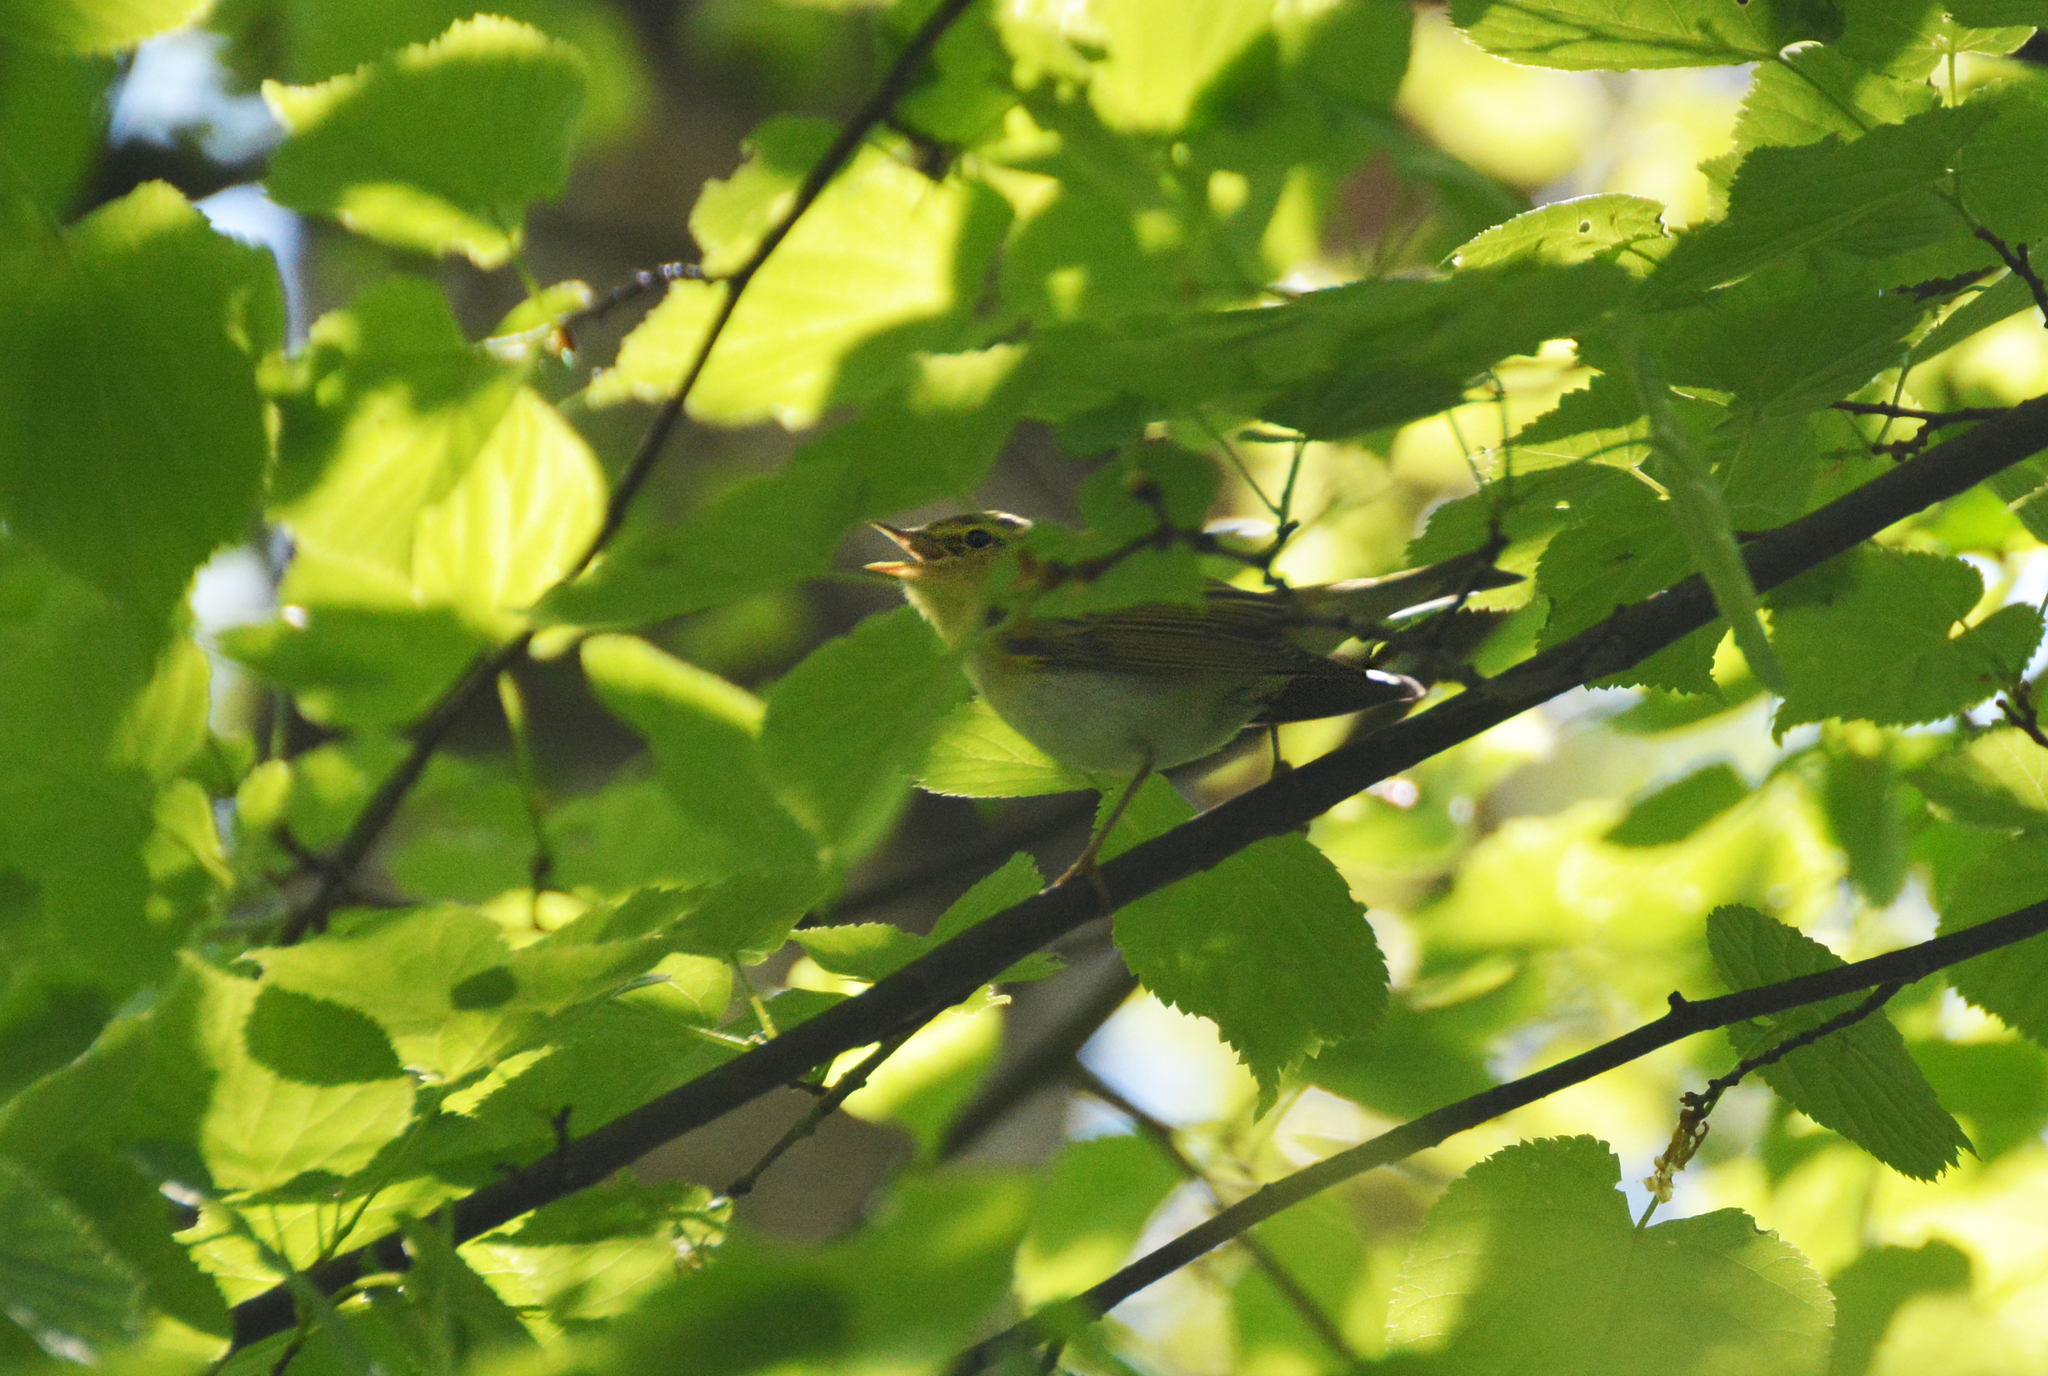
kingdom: Animalia
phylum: Chordata
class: Aves
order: Passeriformes
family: Phylloscopidae
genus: Phylloscopus
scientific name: Phylloscopus sibillatrix
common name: Wood warbler
